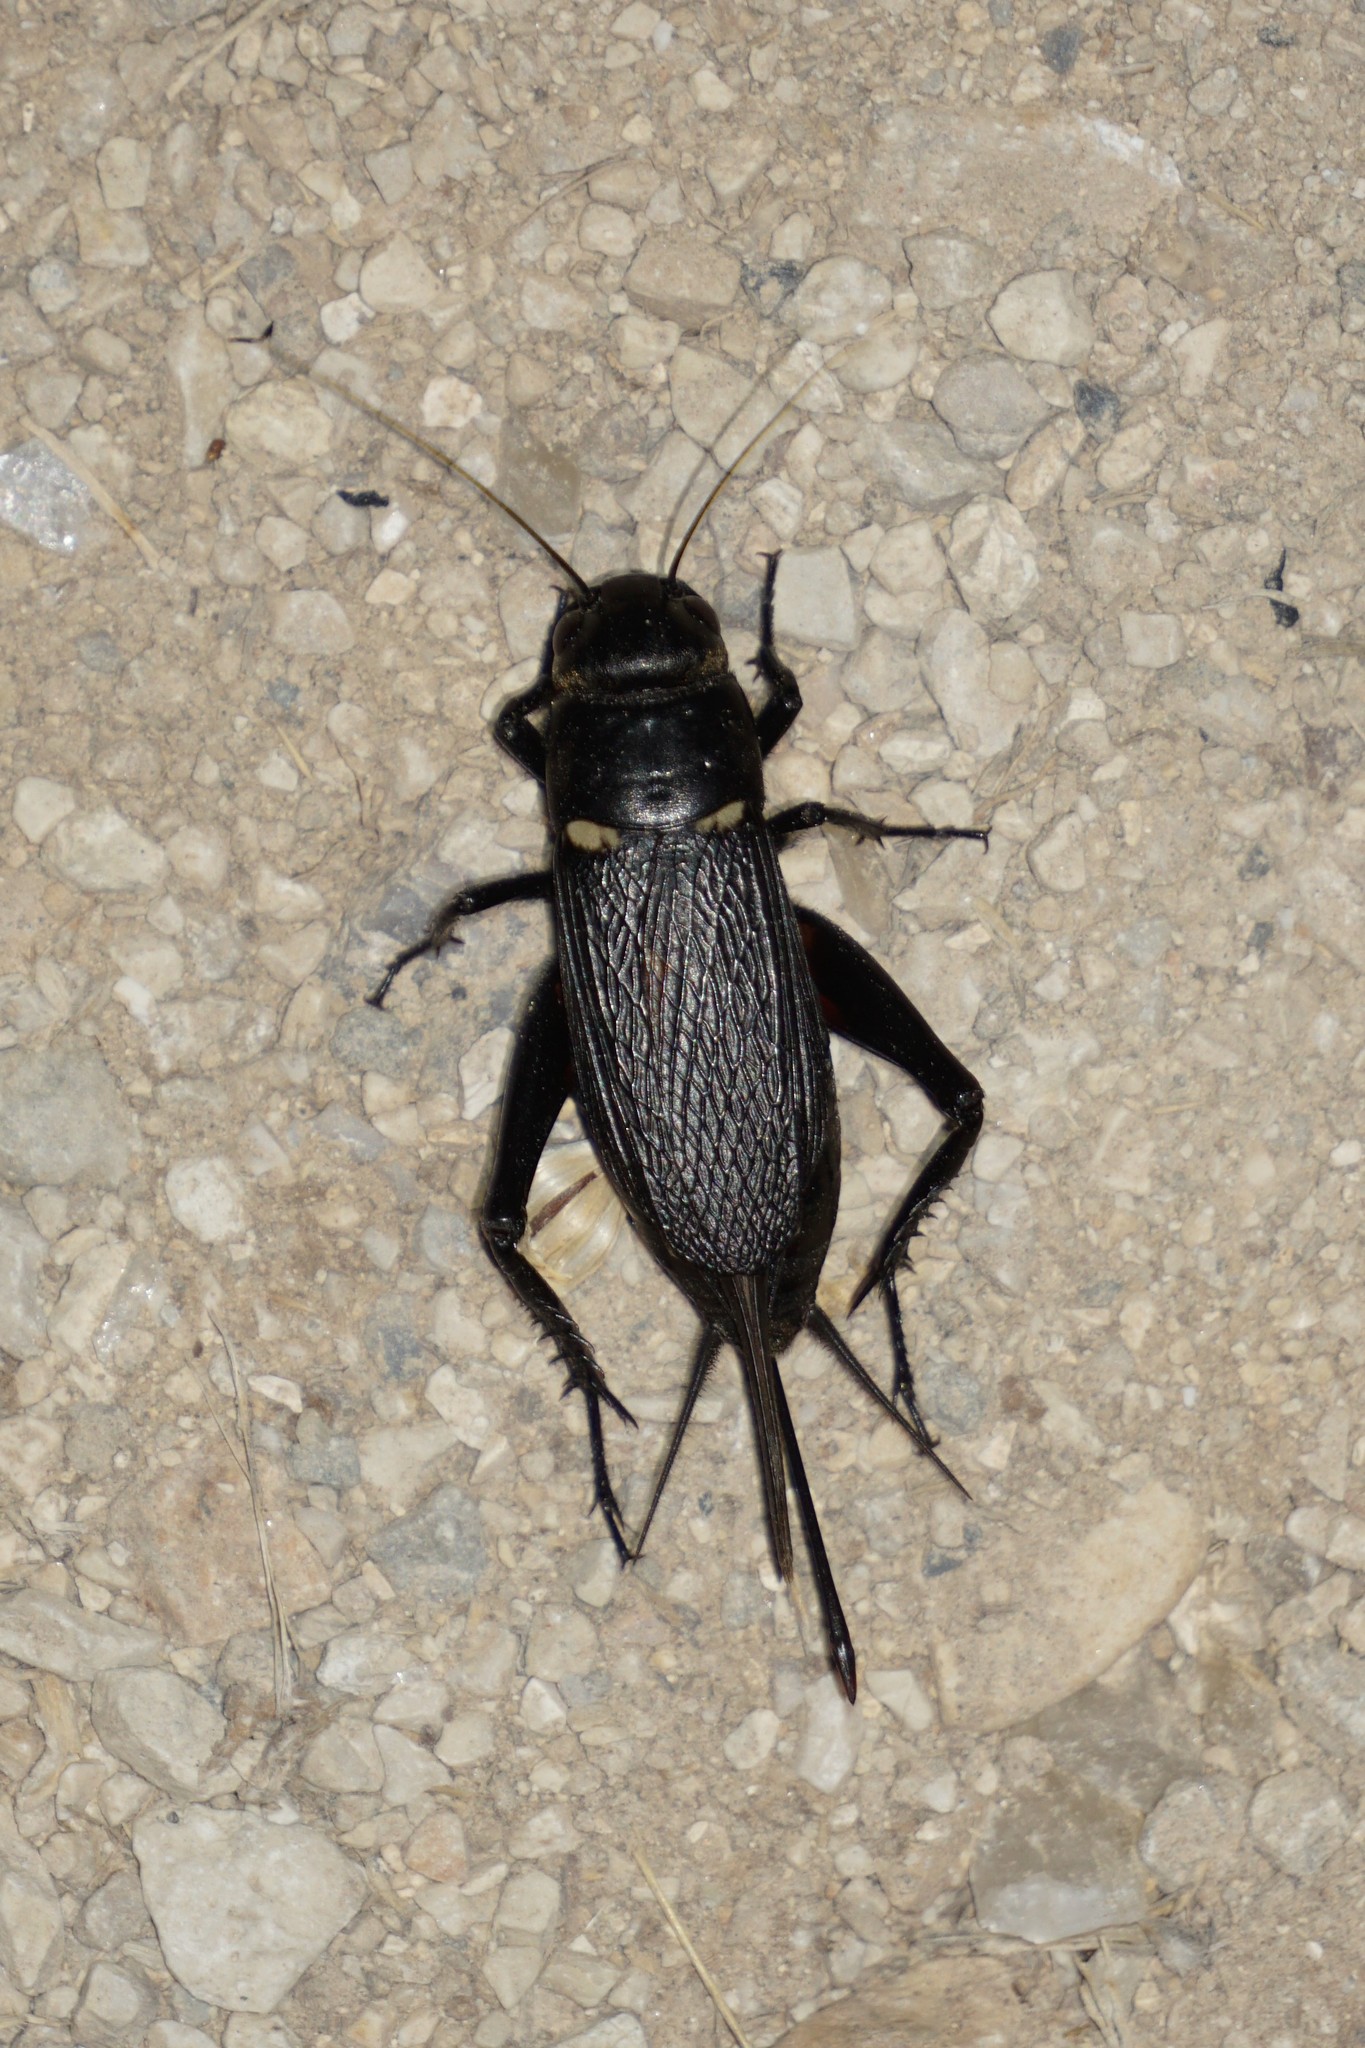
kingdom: Animalia
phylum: Arthropoda
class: Insecta
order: Orthoptera
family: Gryllidae
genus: Gryllus
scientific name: Gryllus bimaculatus
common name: Two-spotted cricket
